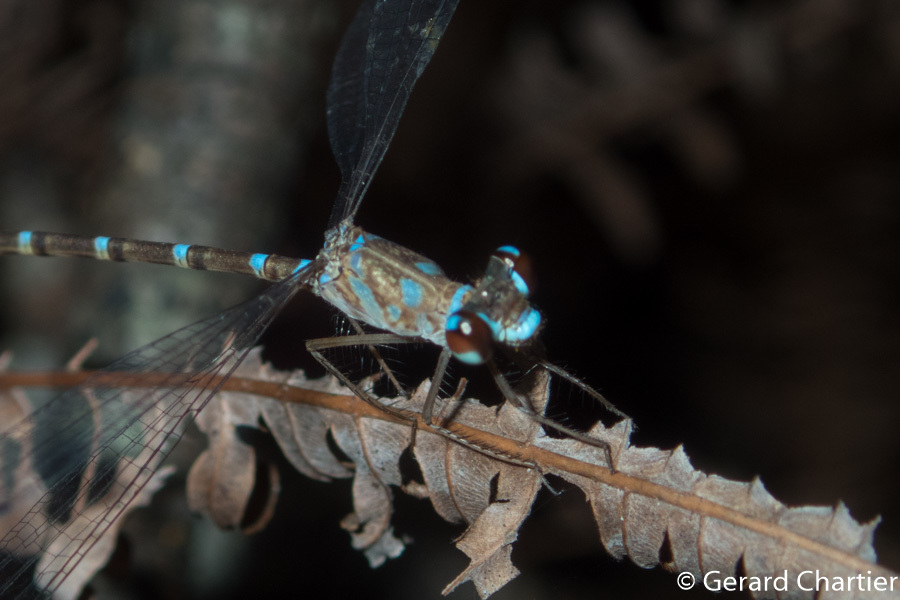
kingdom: Animalia
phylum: Arthropoda
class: Insecta
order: Odonata
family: Argiolestidae
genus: Podolestes
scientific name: Podolestes coomansi
